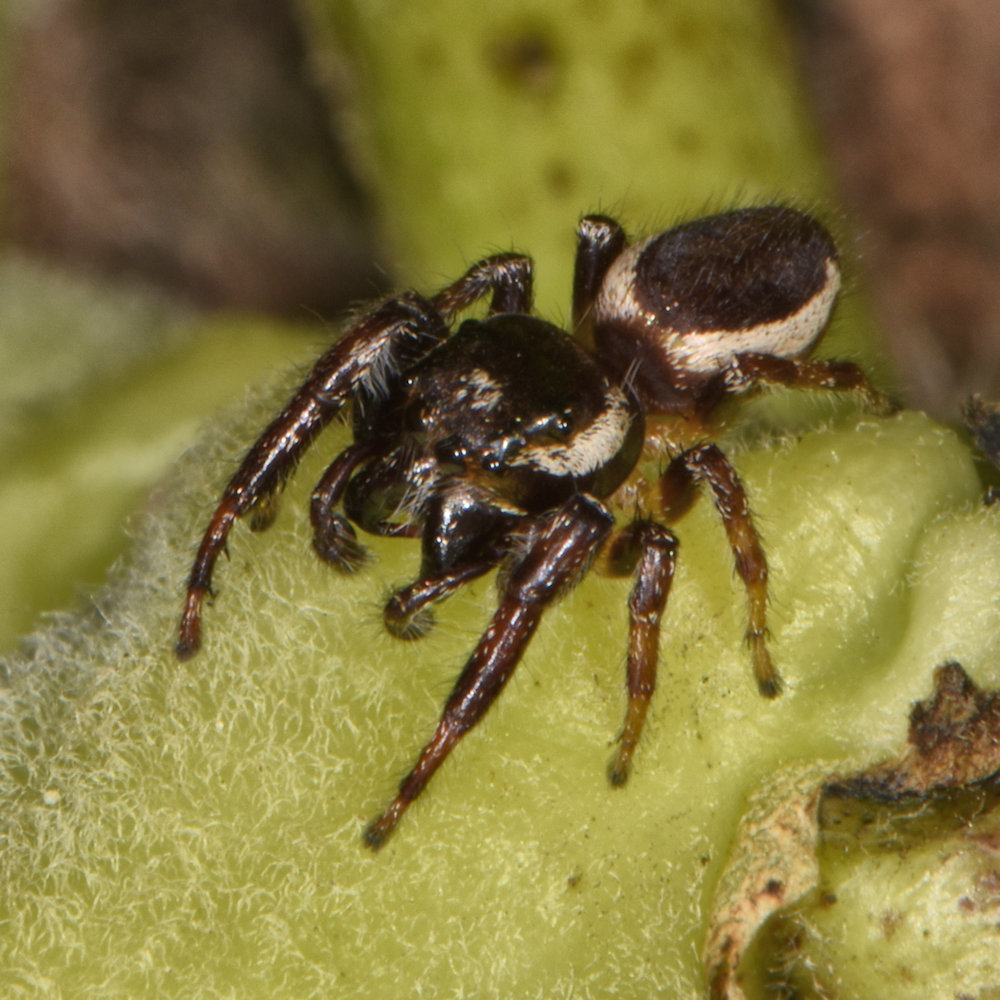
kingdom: Animalia
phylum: Arthropoda
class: Arachnida
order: Araneae
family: Salticidae
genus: Eris
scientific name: Eris militaris
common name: Bronze jumper
